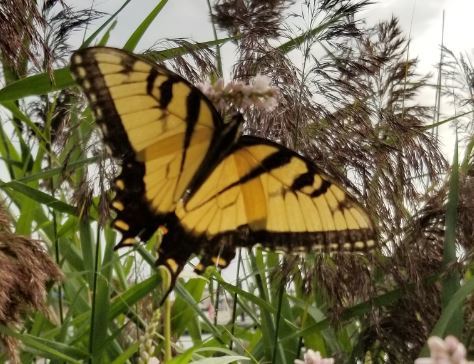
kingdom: Animalia
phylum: Arthropoda
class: Insecta
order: Lepidoptera
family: Papilionidae
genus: Papilio
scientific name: Papilio glaucus
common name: Tiger swallowtail
